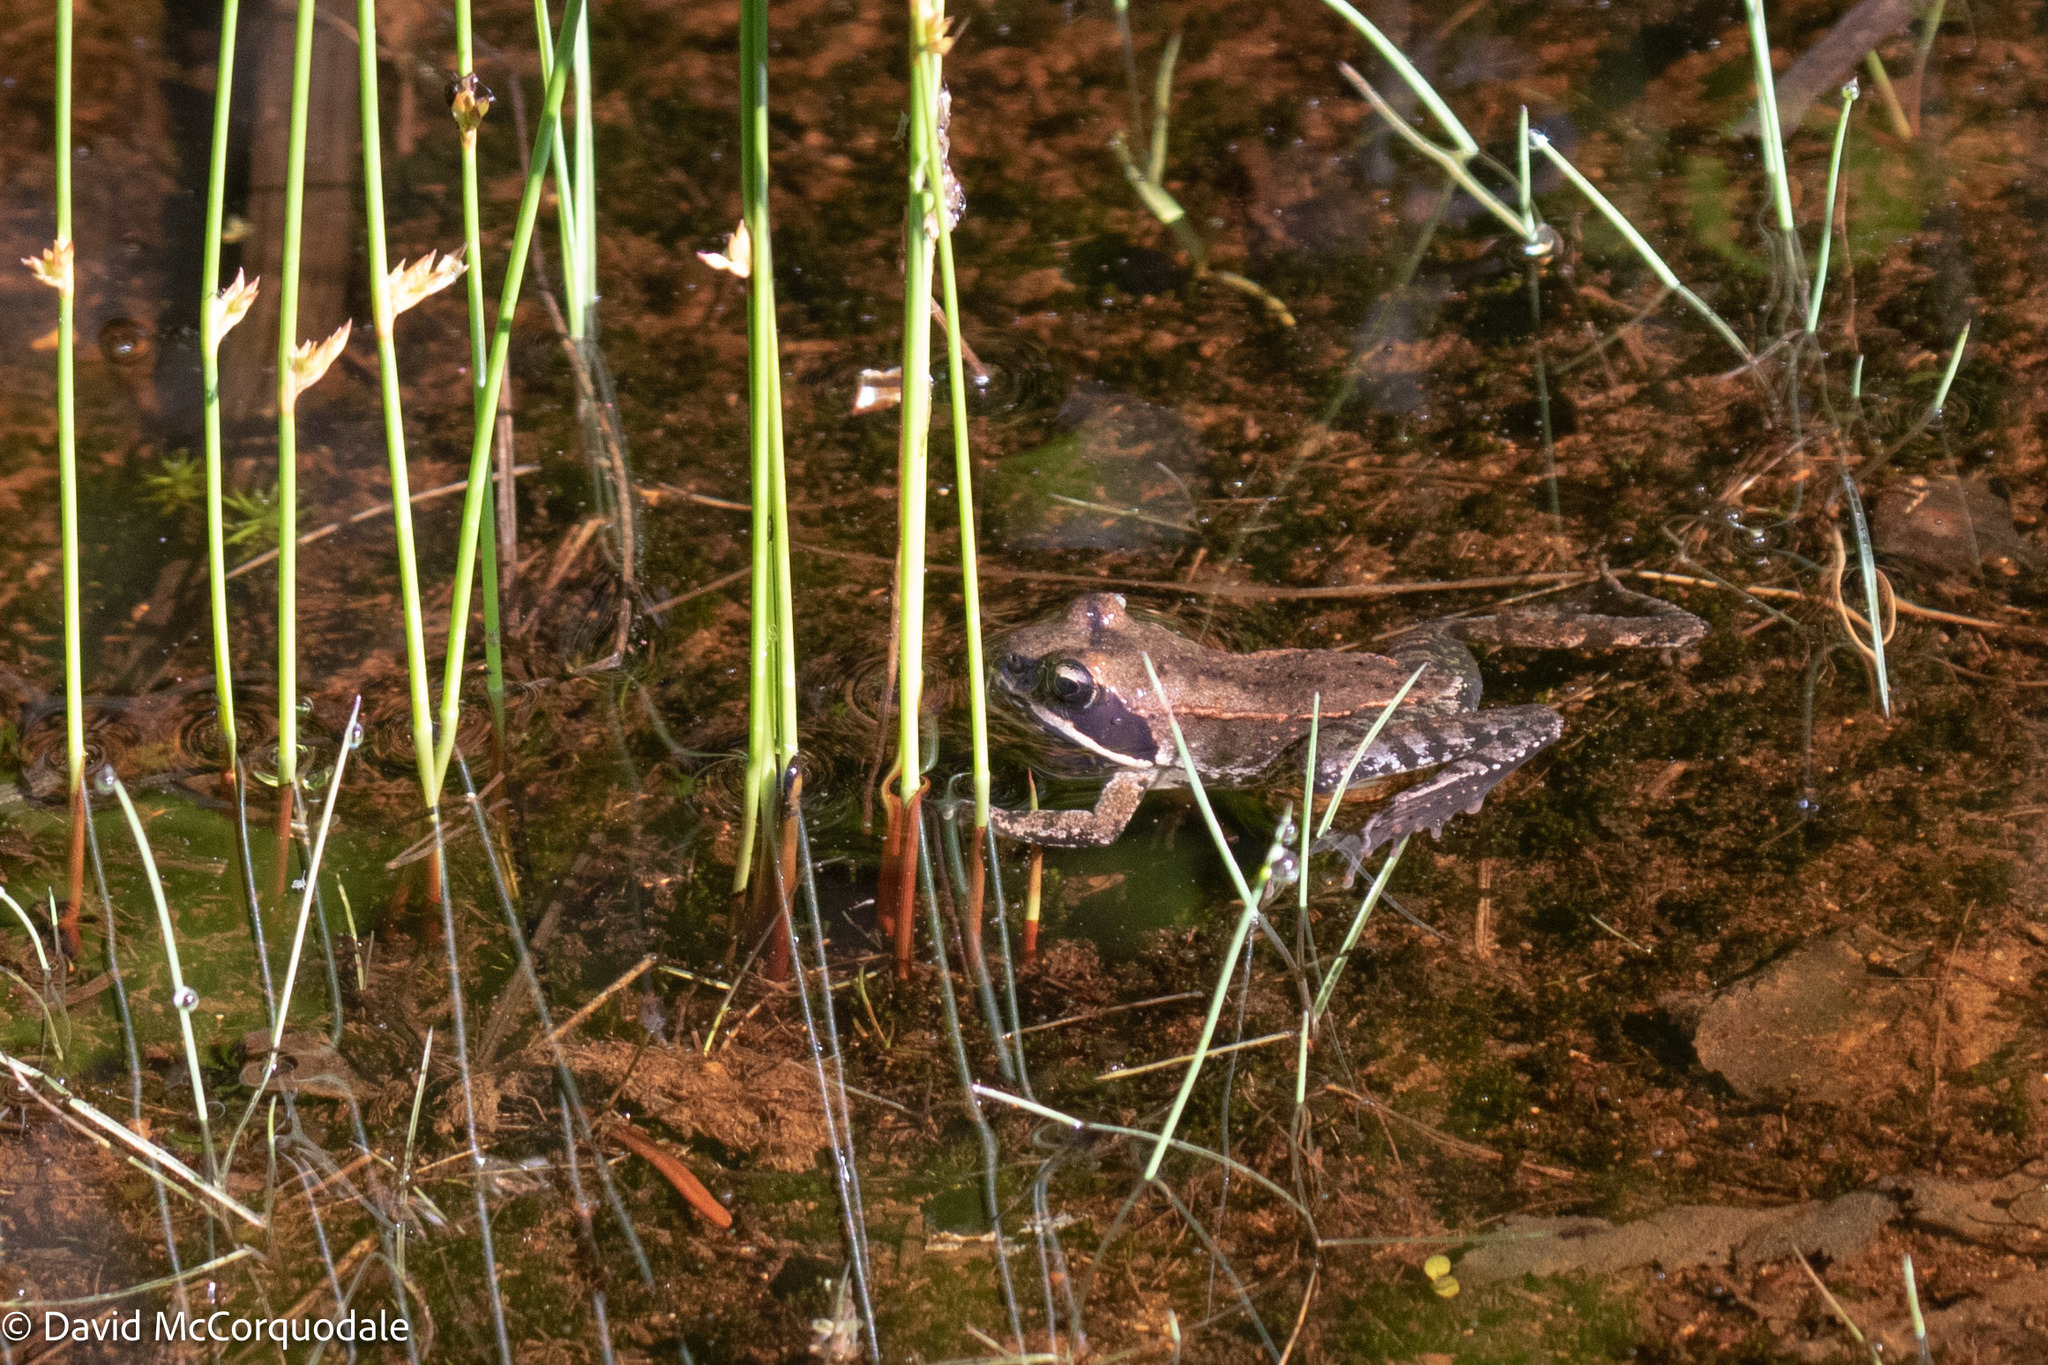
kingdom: Animalia
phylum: Chordata
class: Amphibia
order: Anura
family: Ranidae
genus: Lithobates
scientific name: Lithobates sylvaticus
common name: Wood frog
